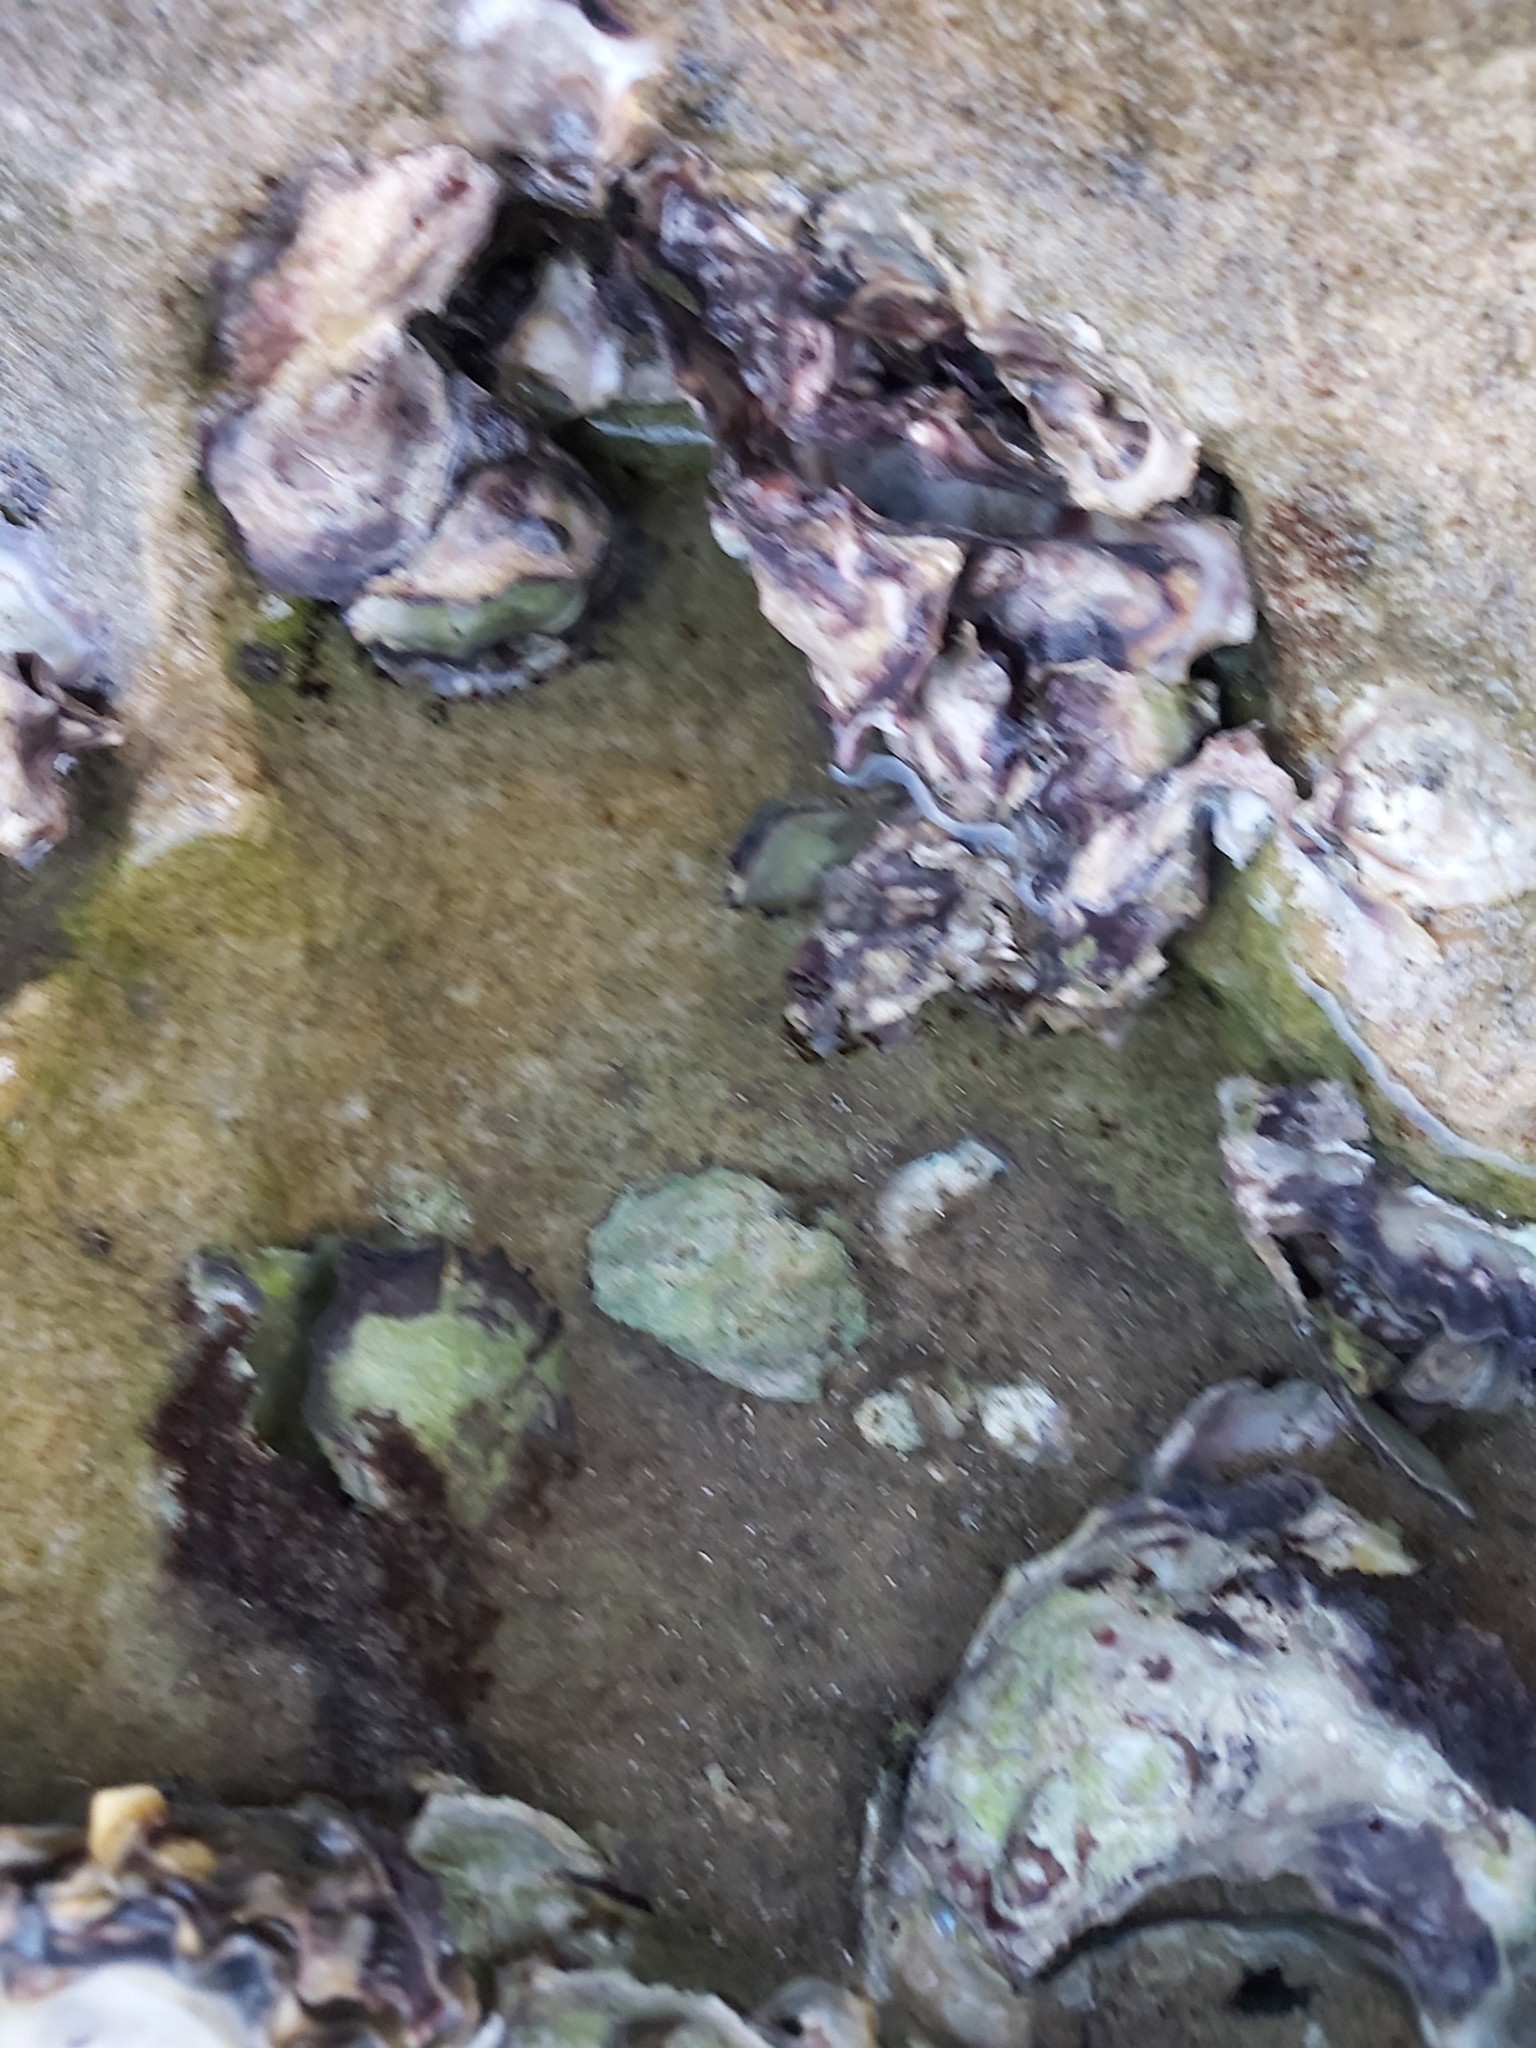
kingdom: Animalia
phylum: Mollusca
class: Bivalvia
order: Ostreida
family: Ostreidae
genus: Saccostrea
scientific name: Saccostrea glomerata
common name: Sydney cupped oyster
